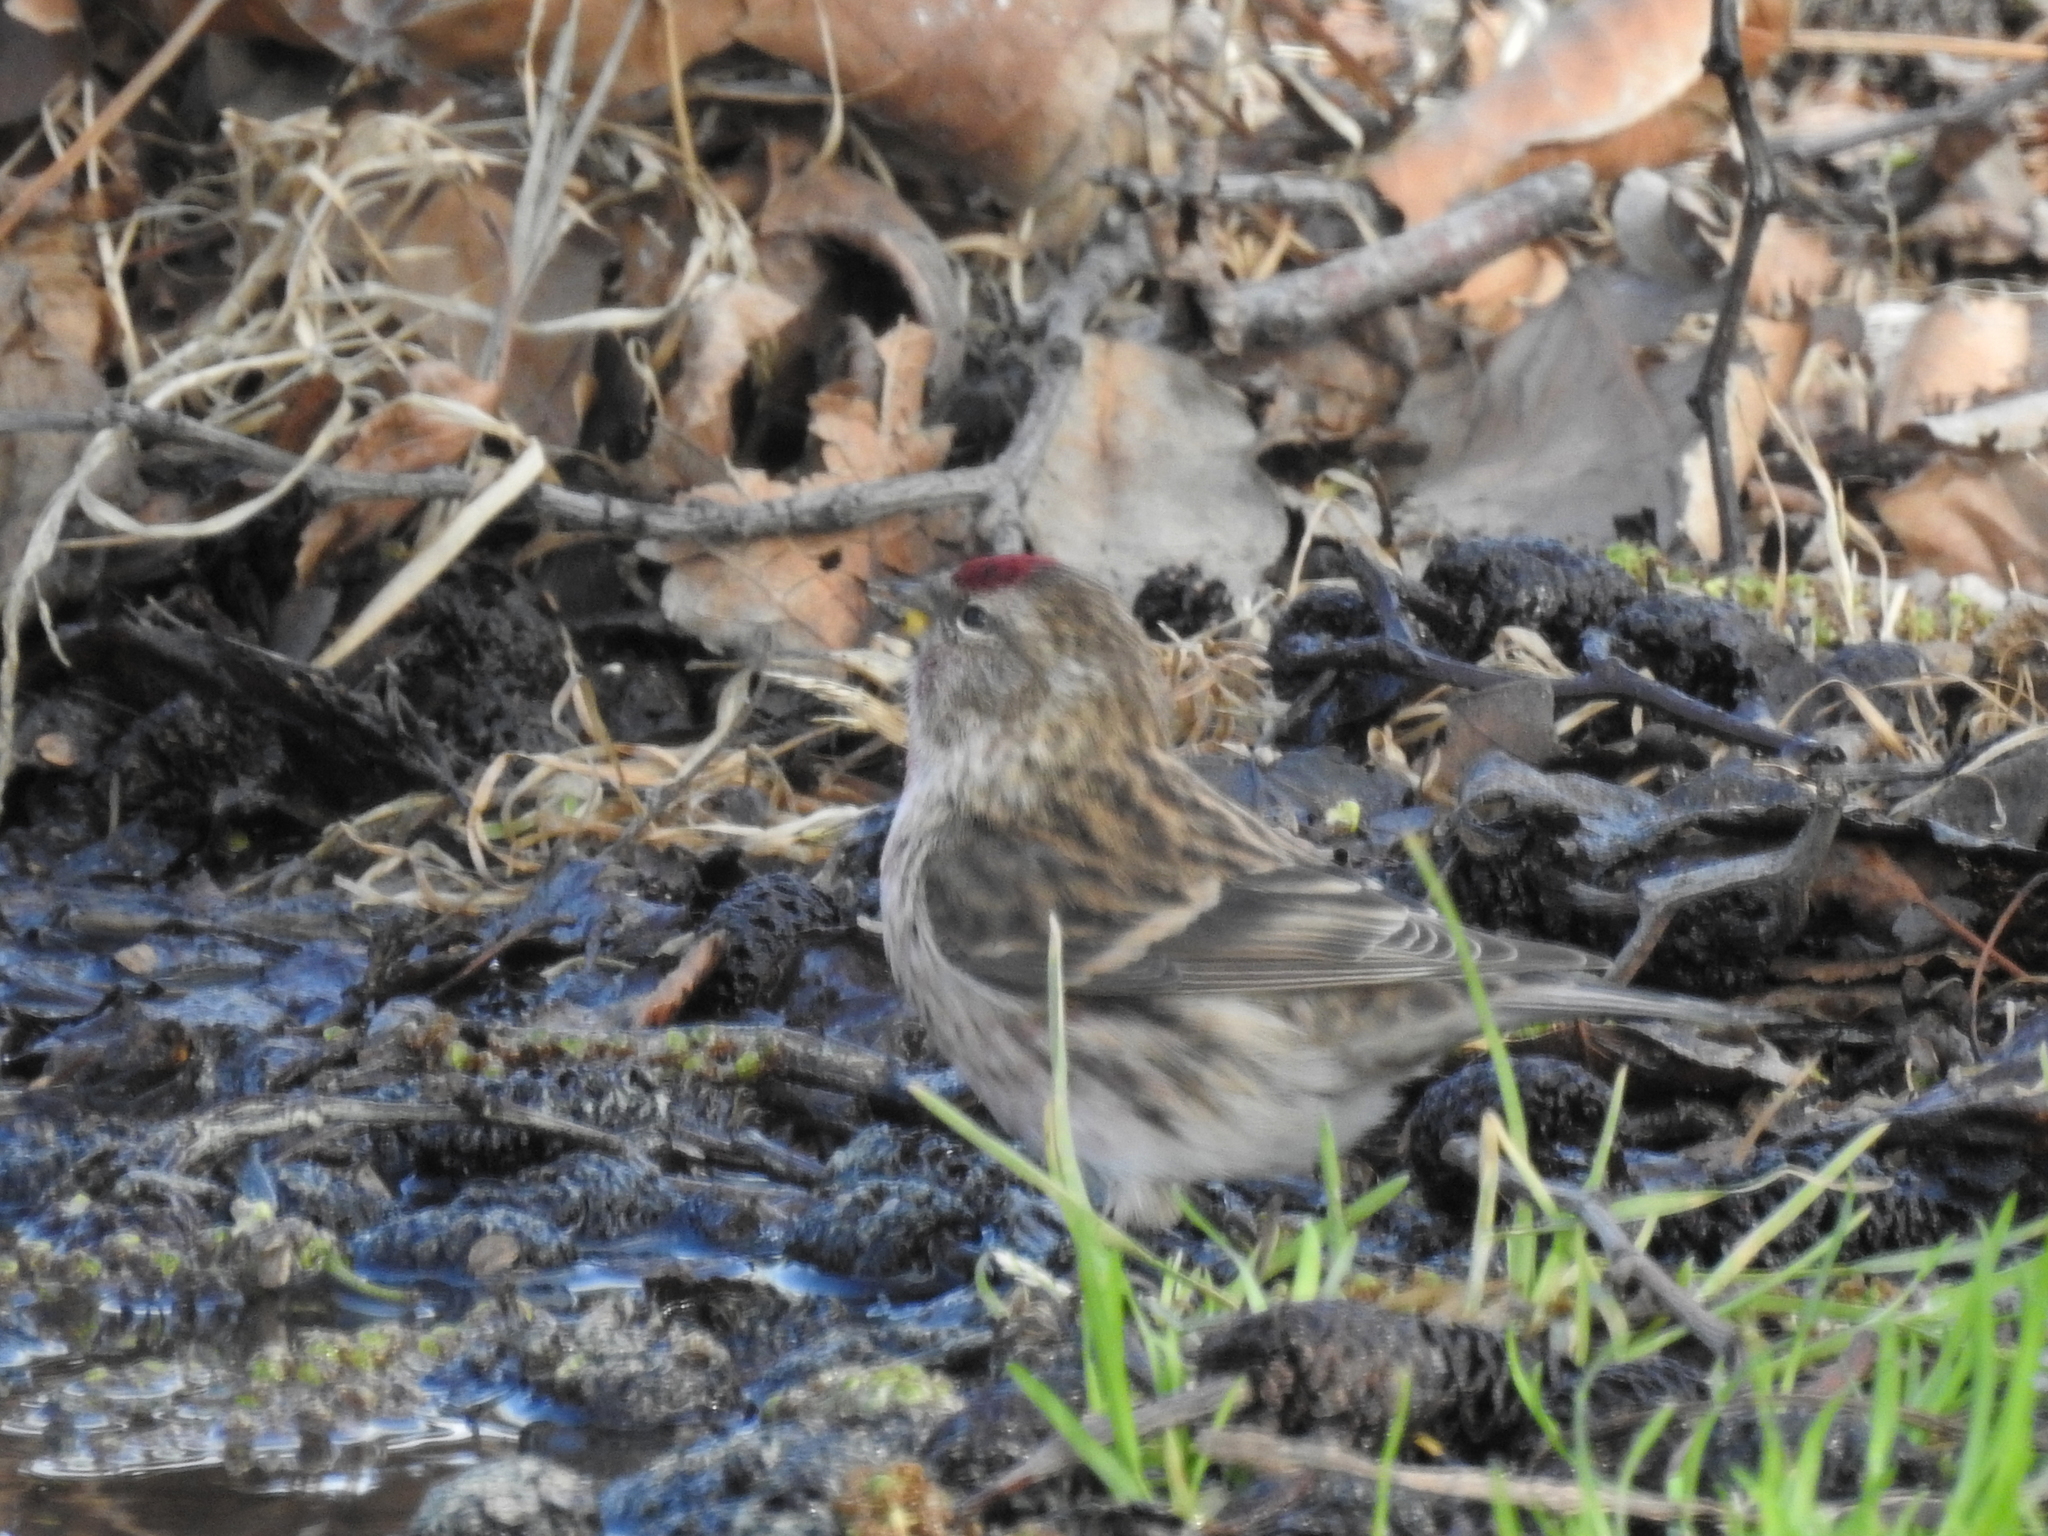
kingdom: Animalia
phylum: Chordata
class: Aves
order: Passeriformes
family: Fringillidae
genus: Acanthis
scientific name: Acanthis flammea
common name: Common redpoll
